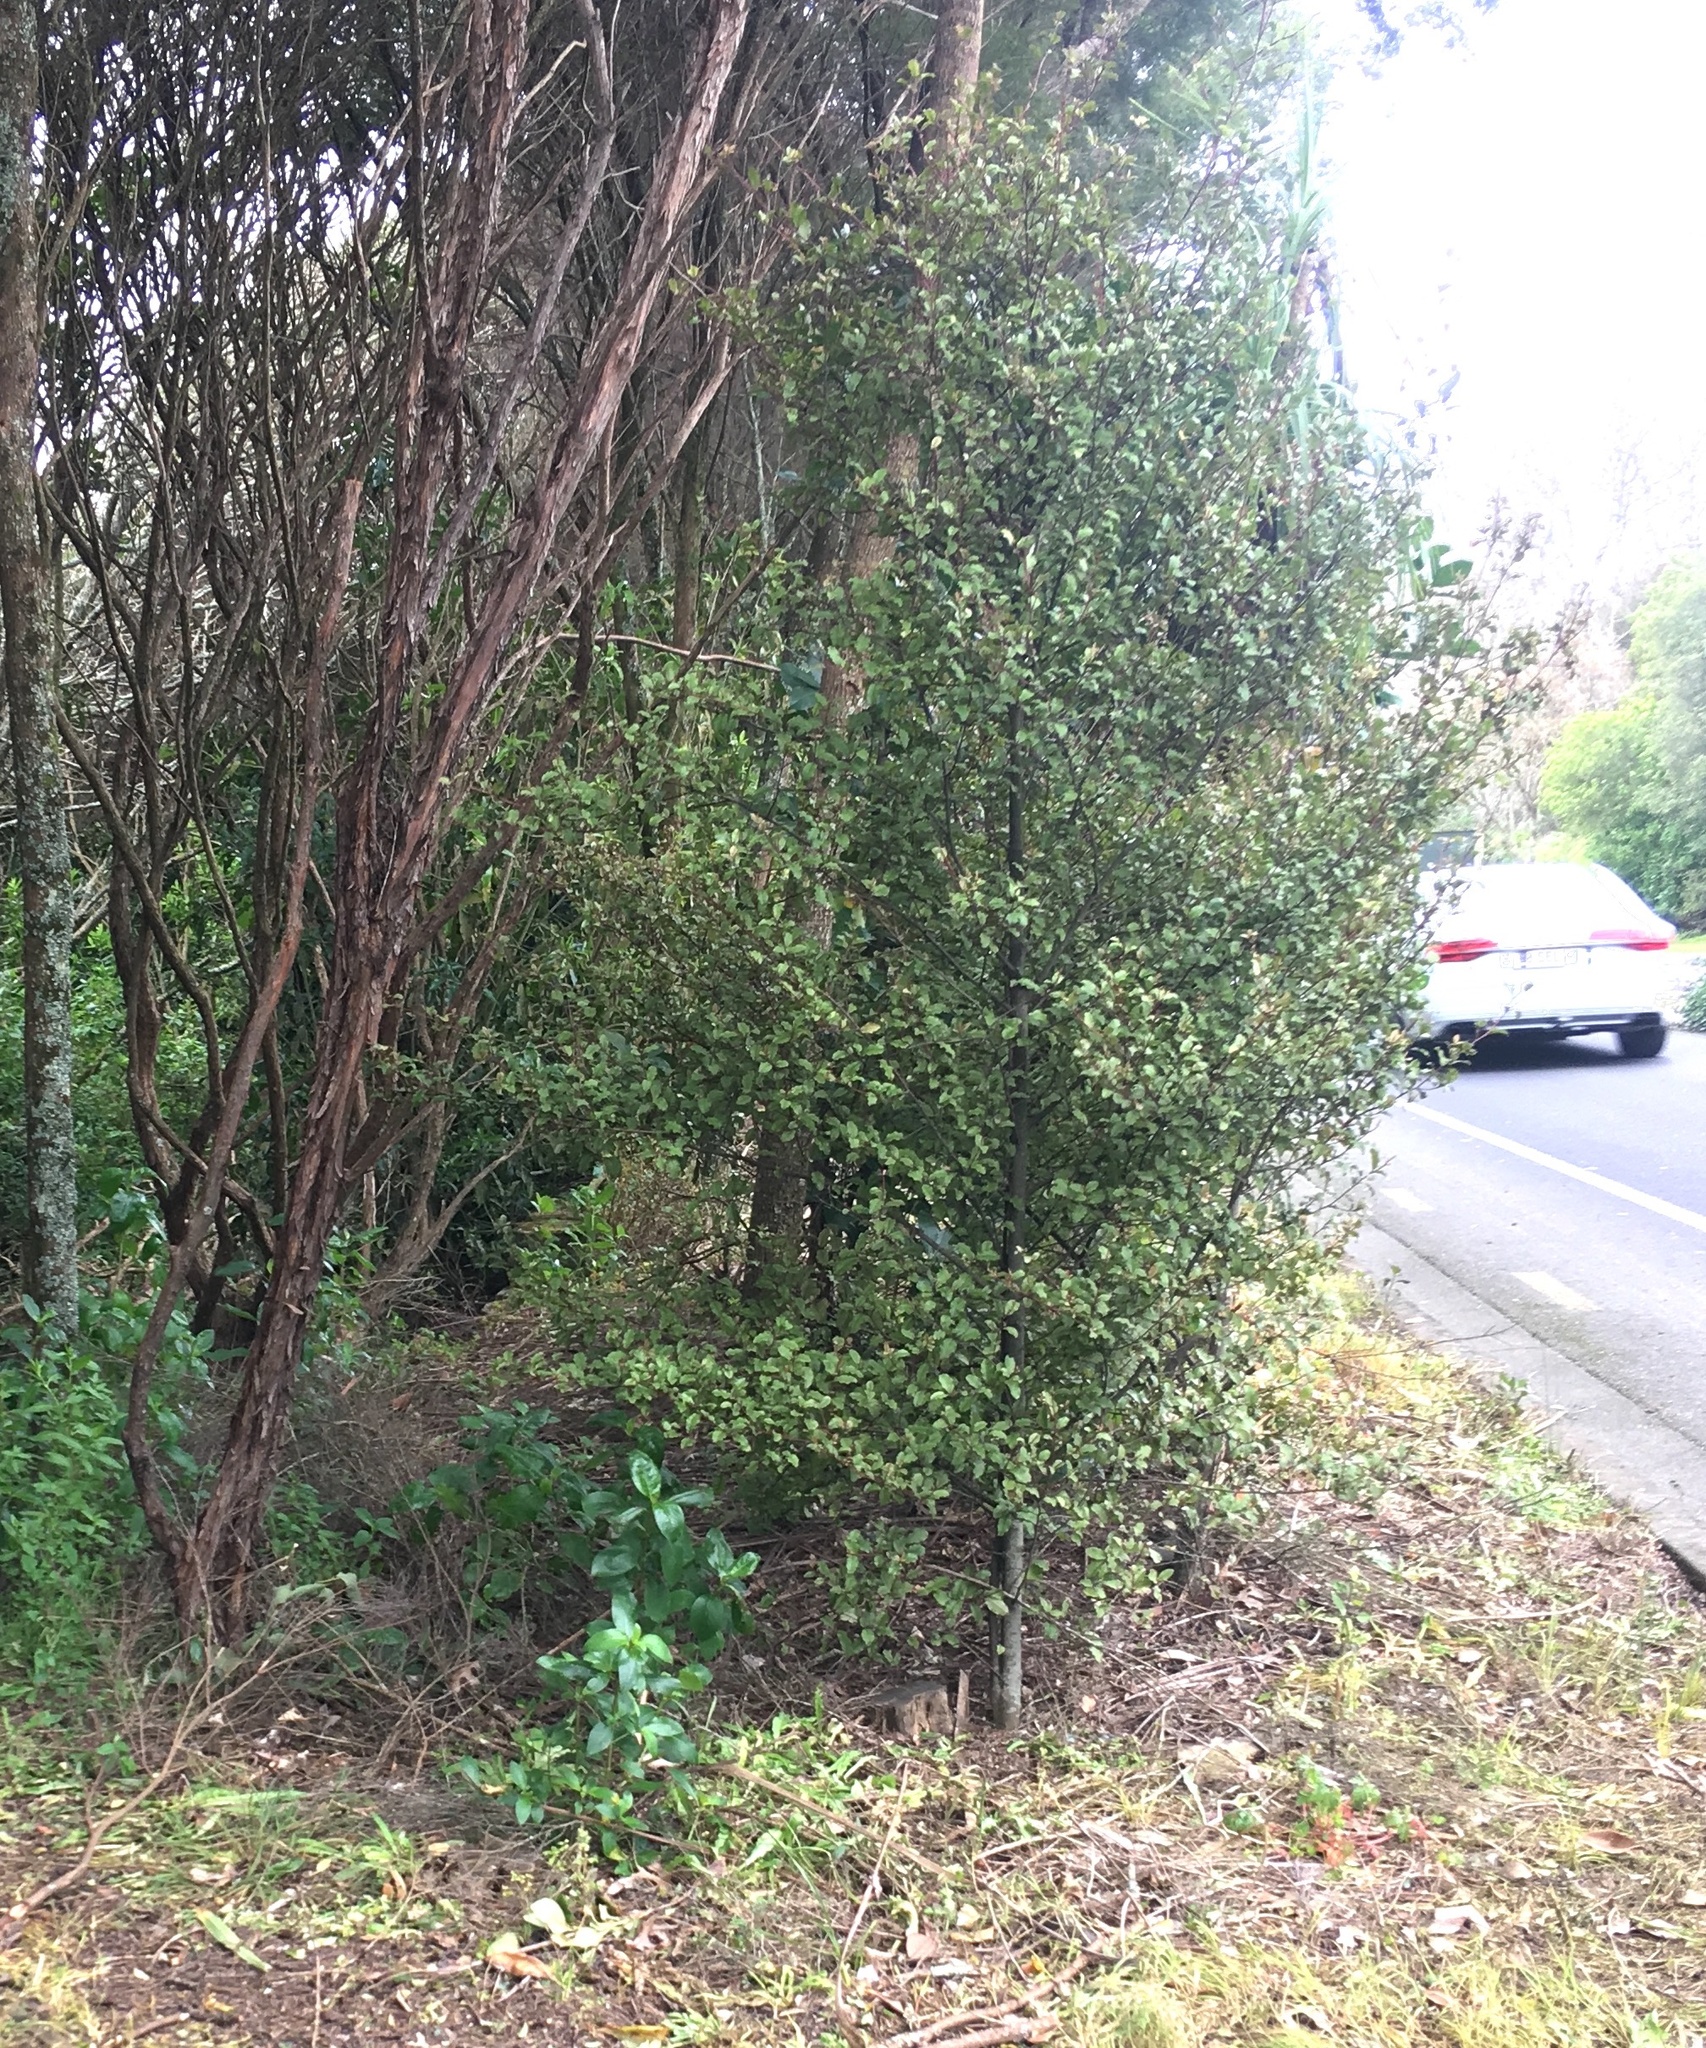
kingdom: Plantae
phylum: Tracheophyta
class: Magnoliopsida
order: Ericales
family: Primulaceae
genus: Myrsine
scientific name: Myrsine australis
